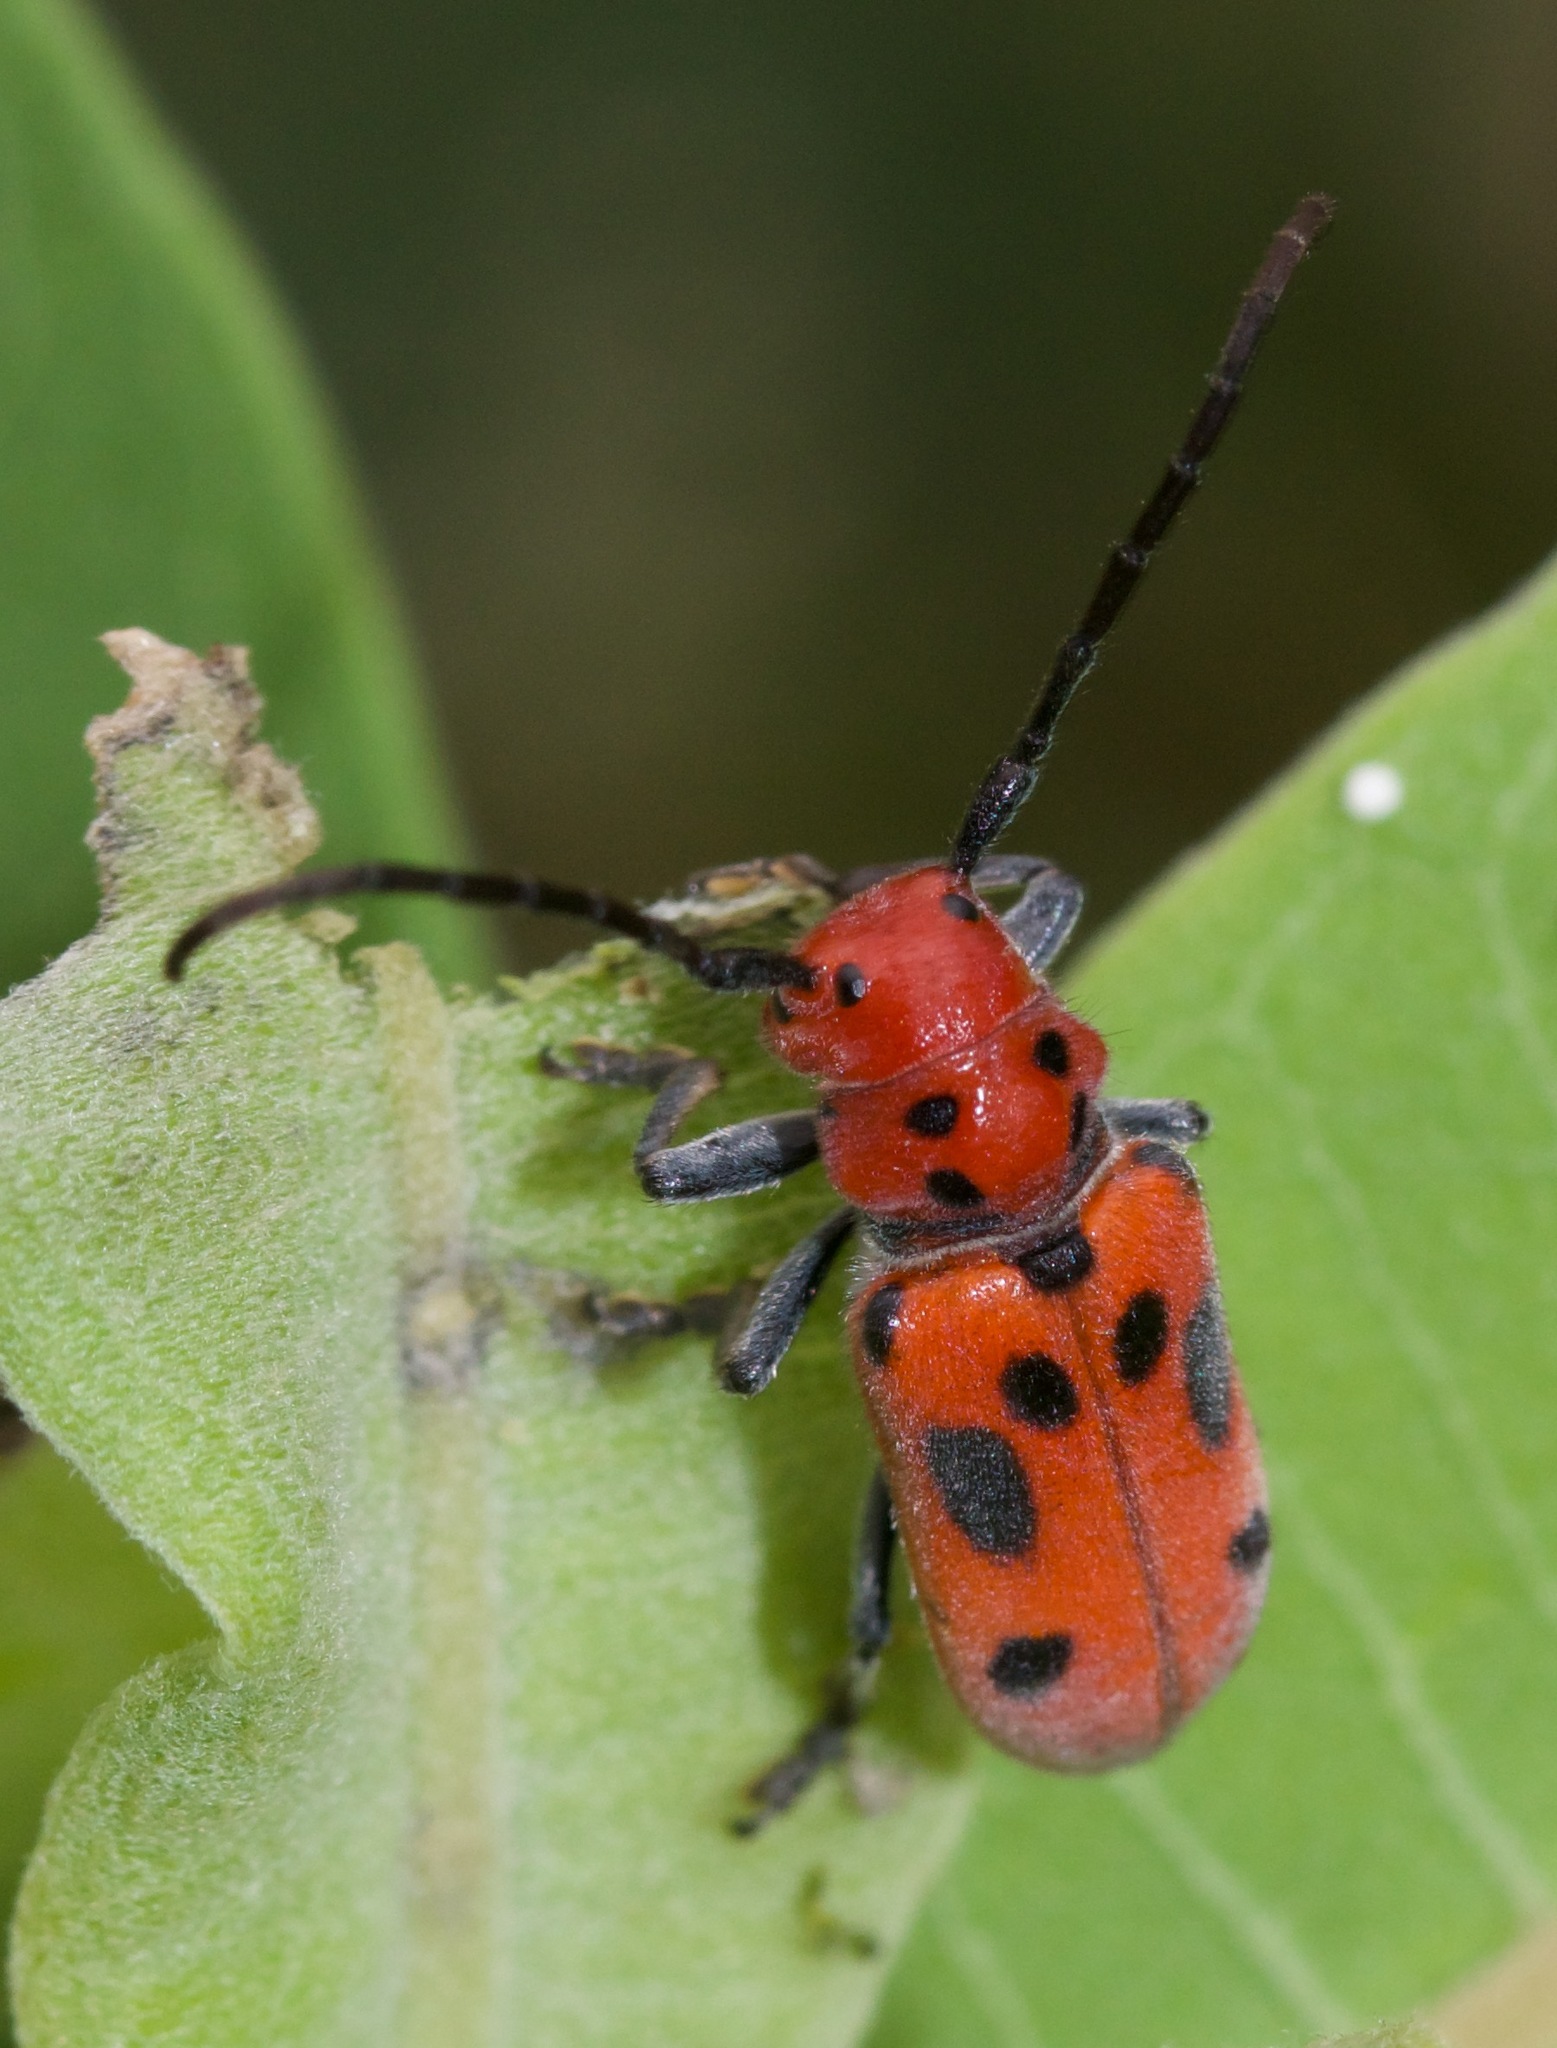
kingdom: Animalia
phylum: Arthropoda
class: Insecta
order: Coleoptera
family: Cerambycidae
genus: Tetraopes
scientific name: Tetraopes tetrophthalmus
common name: Red milkweed beetle
